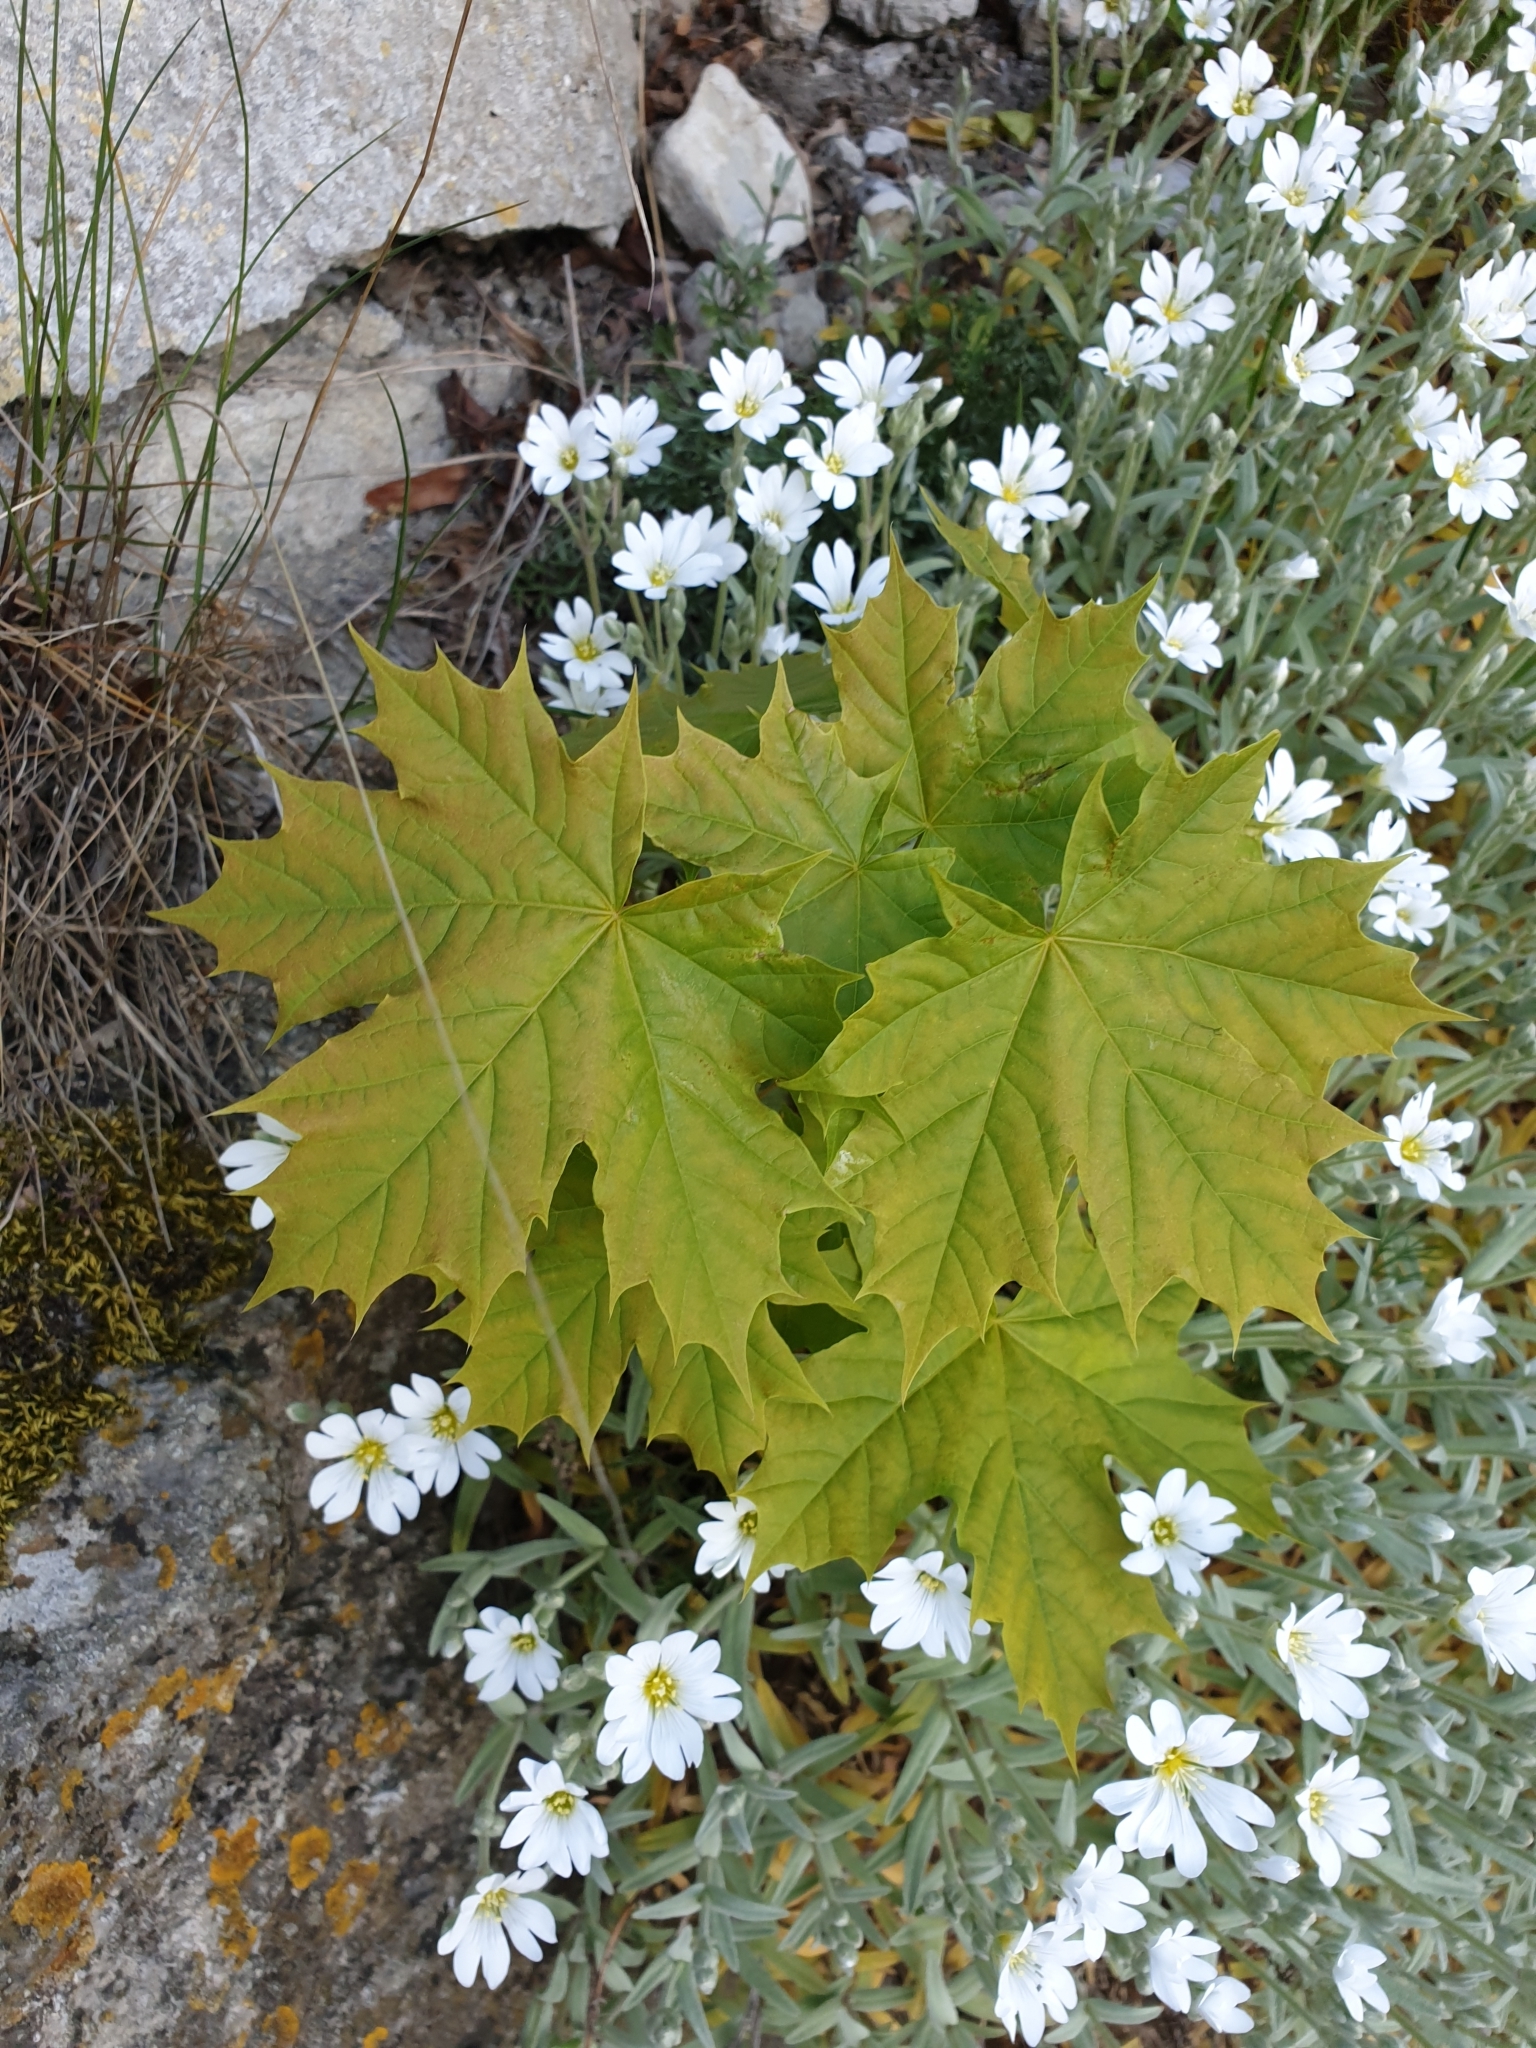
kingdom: Plantae
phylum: Tracheophyta
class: Magnoliopsida
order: Sapindales
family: Sapindaceae
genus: Acer
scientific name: Acer platanoides
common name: Norway maple
